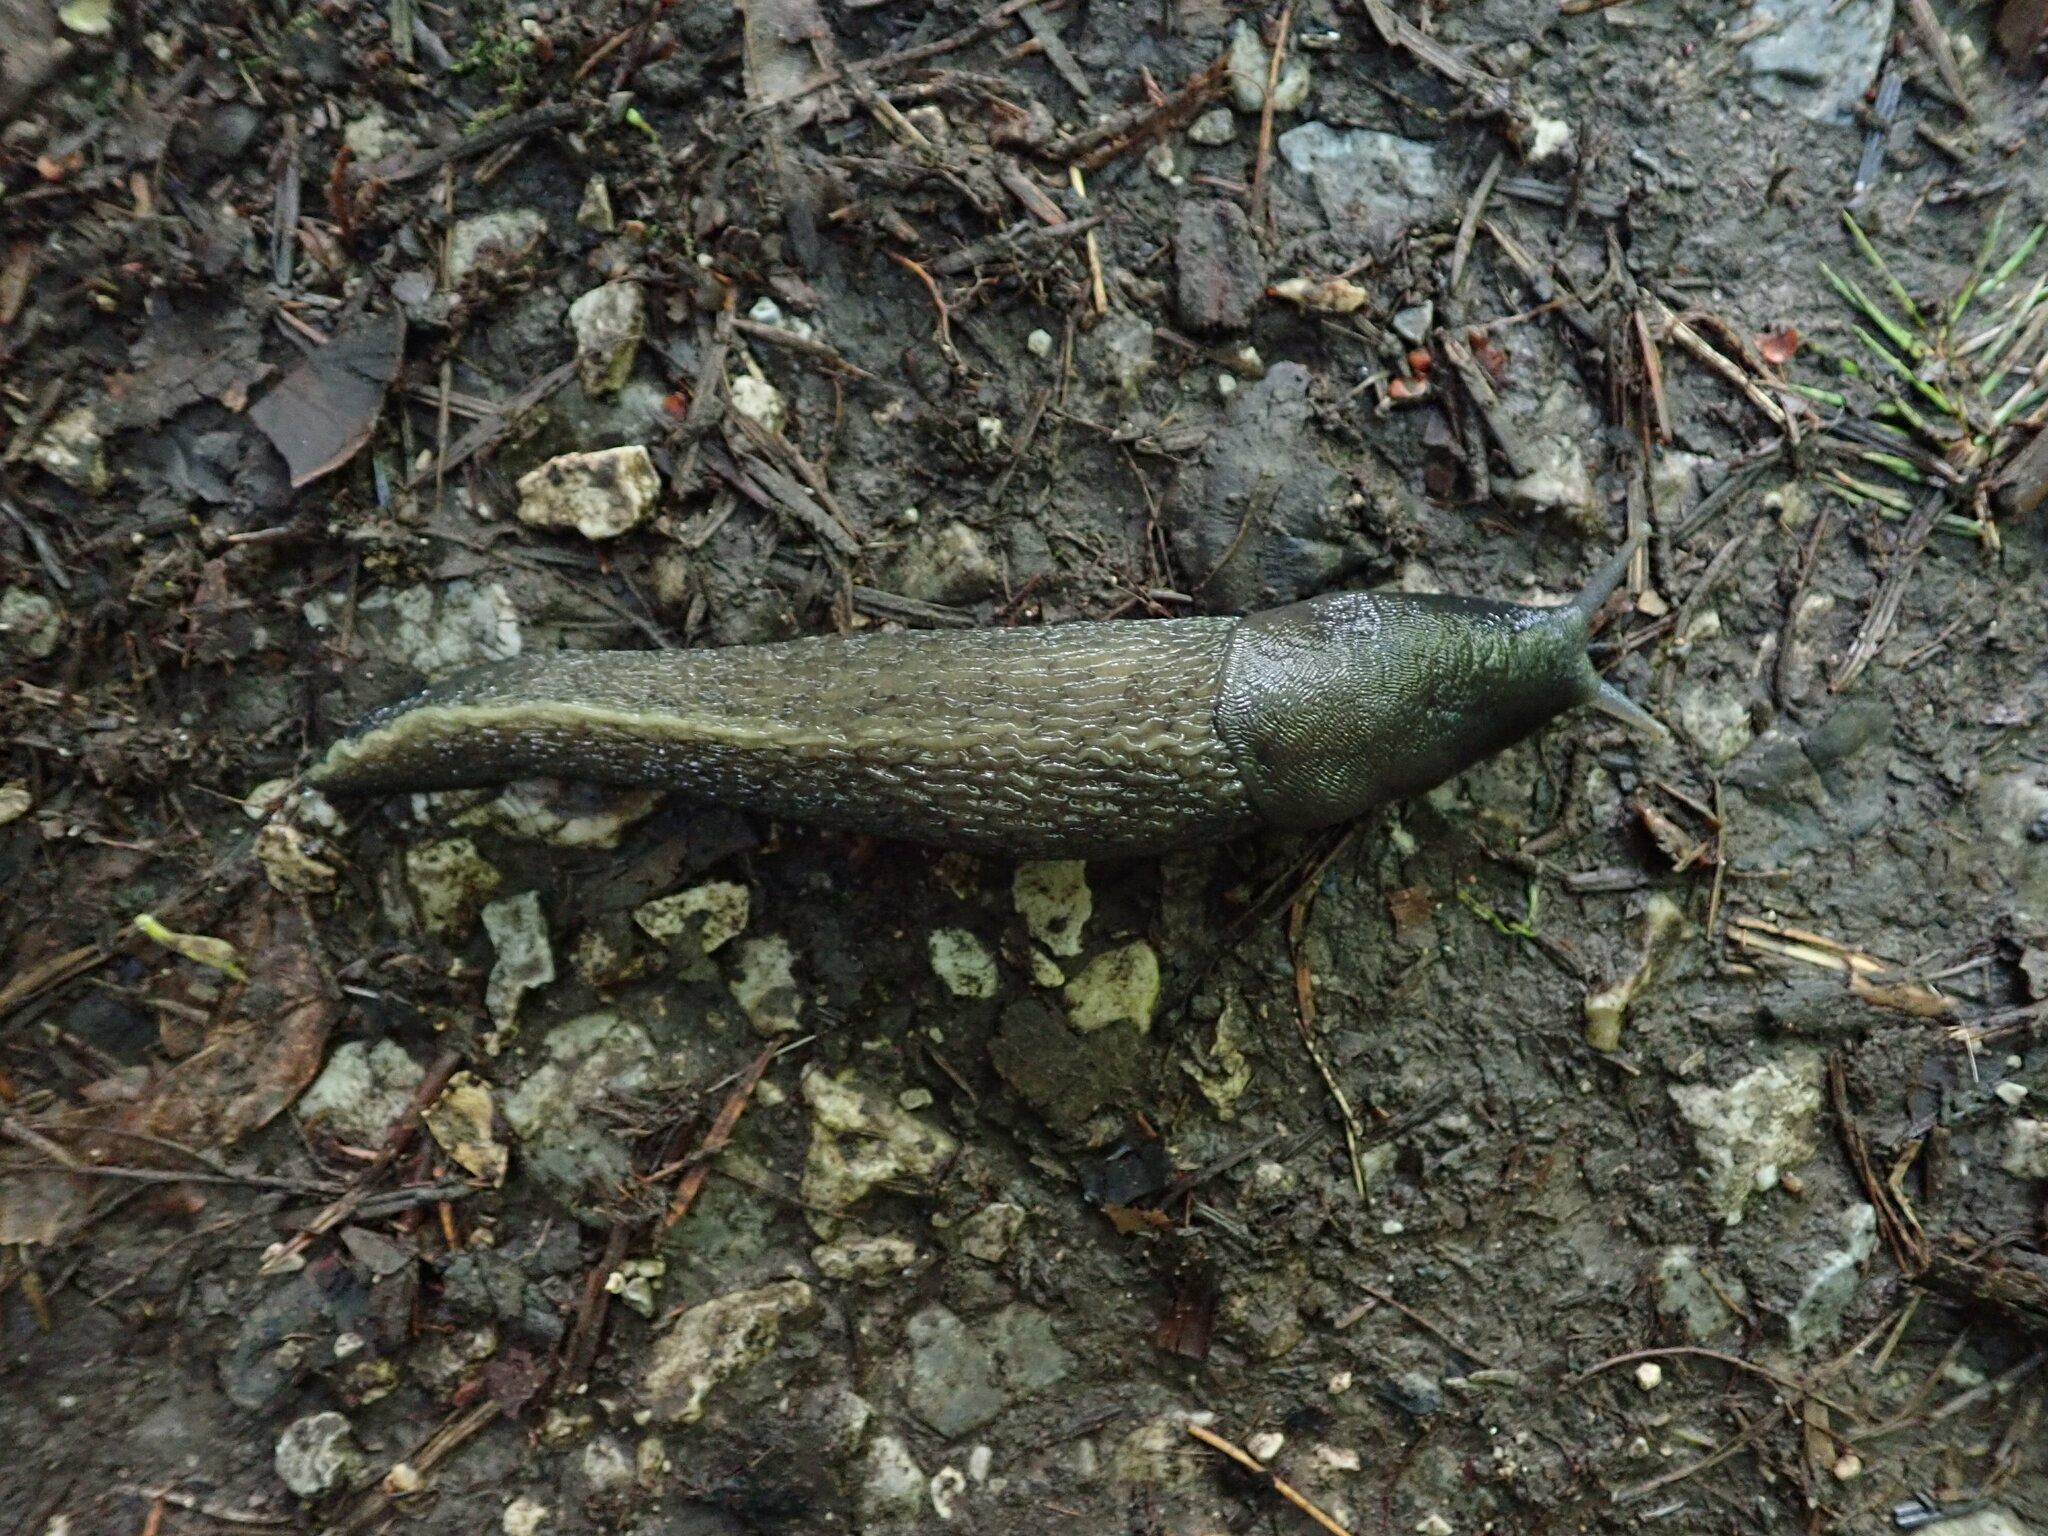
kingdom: Animalia
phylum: Mollusca
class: Gastropoda
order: Stylommatophora
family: Limacidae
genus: Limax
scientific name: Limax cinereoniger
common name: Ash-black slug
